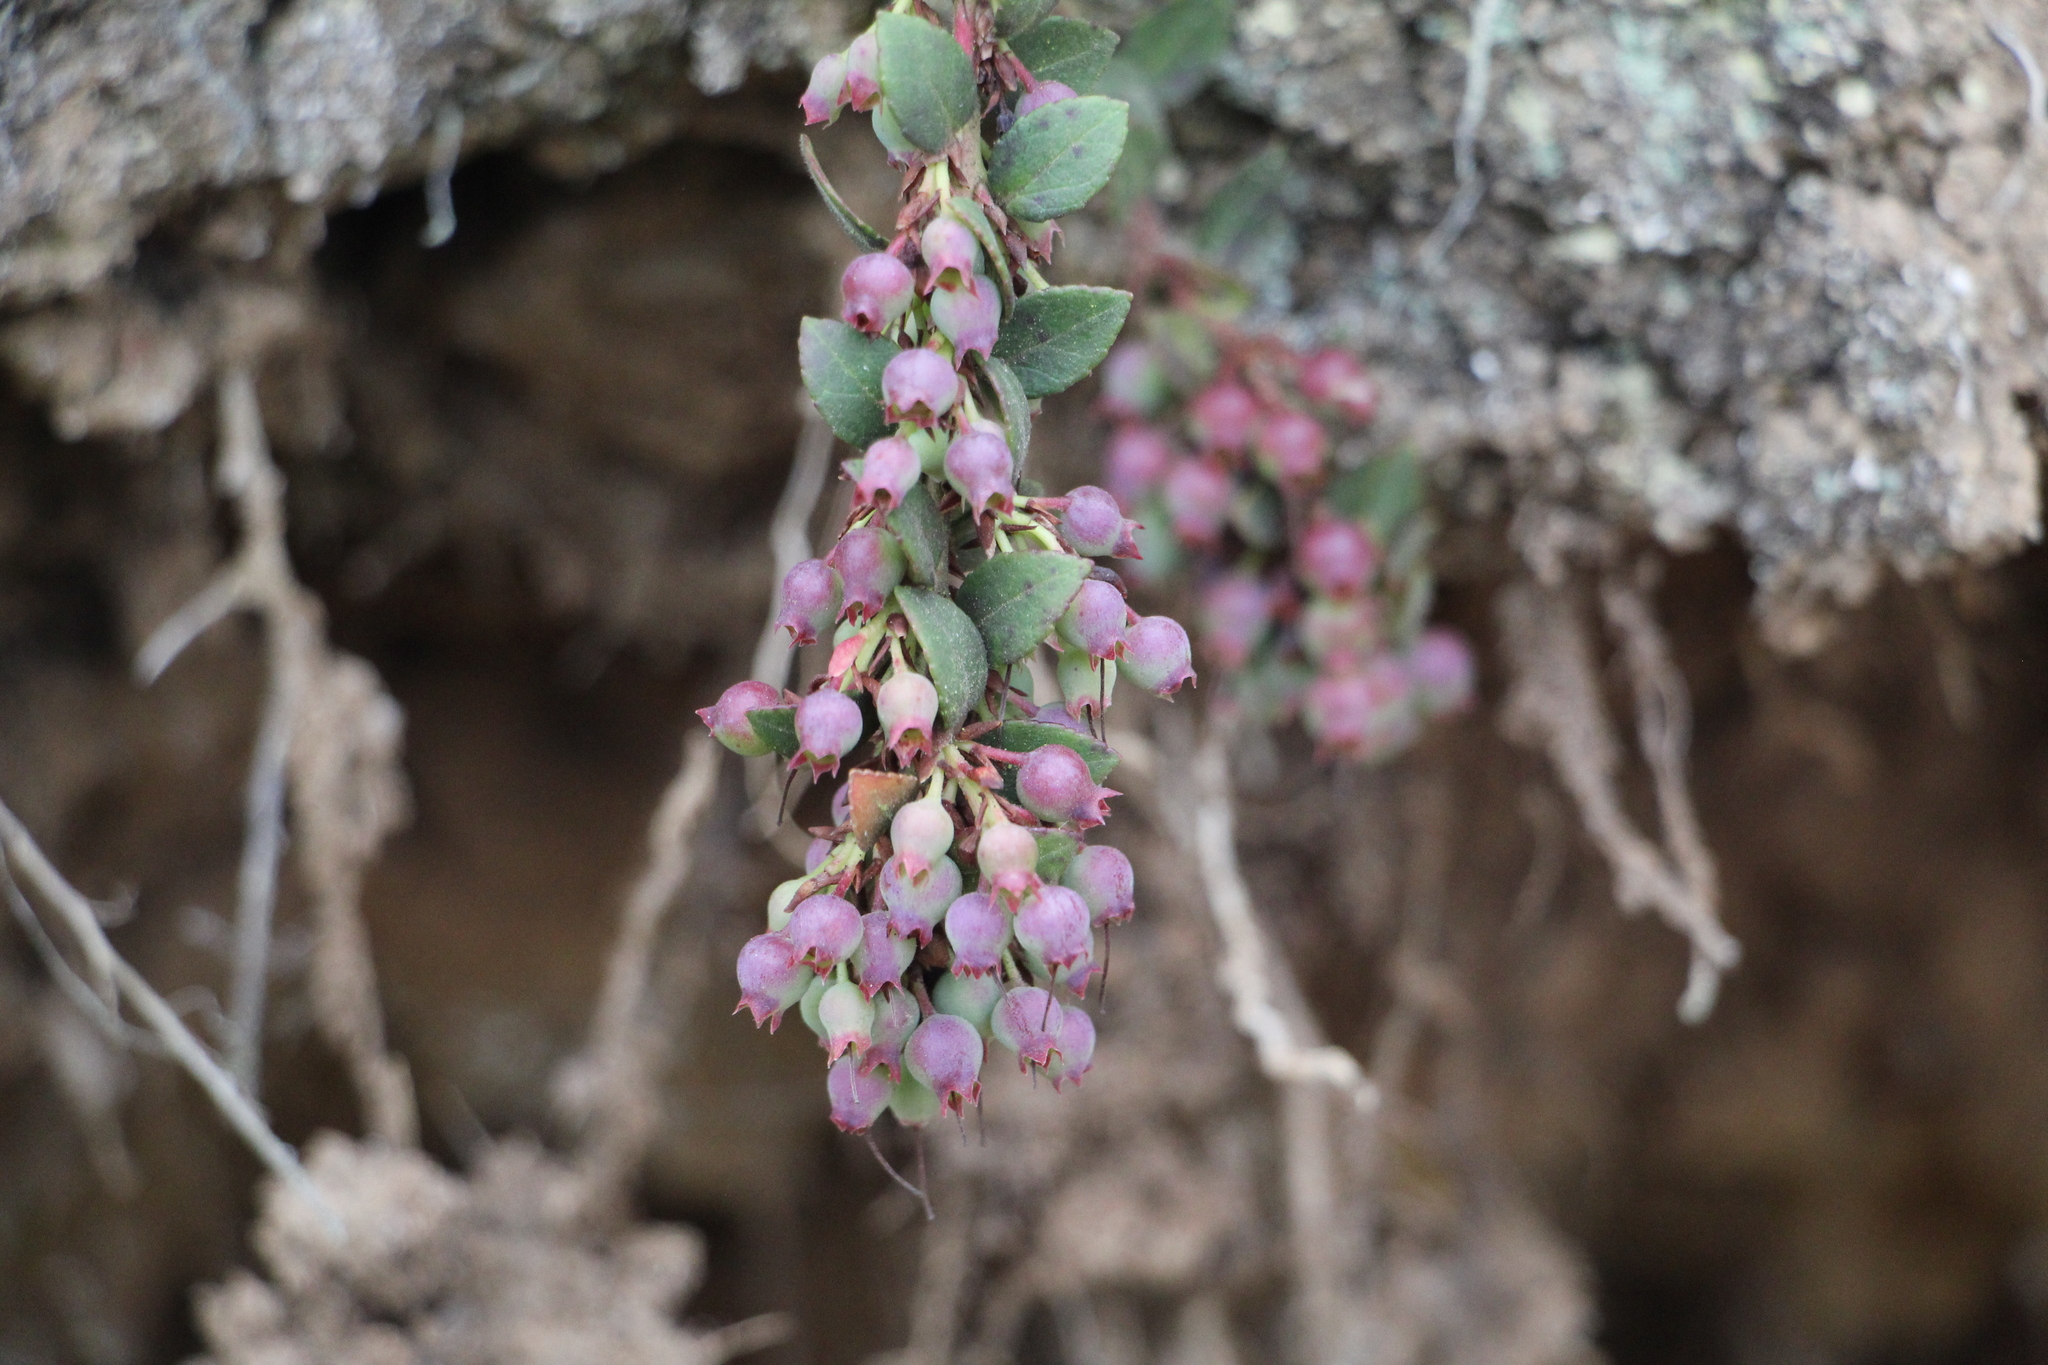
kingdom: Plantae
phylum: Tracheophyta
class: Magnoliopsida
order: Ericales
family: Ericaceae
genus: Vaccinium
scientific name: Vaccinium floribundum
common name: Colombian blueberry
